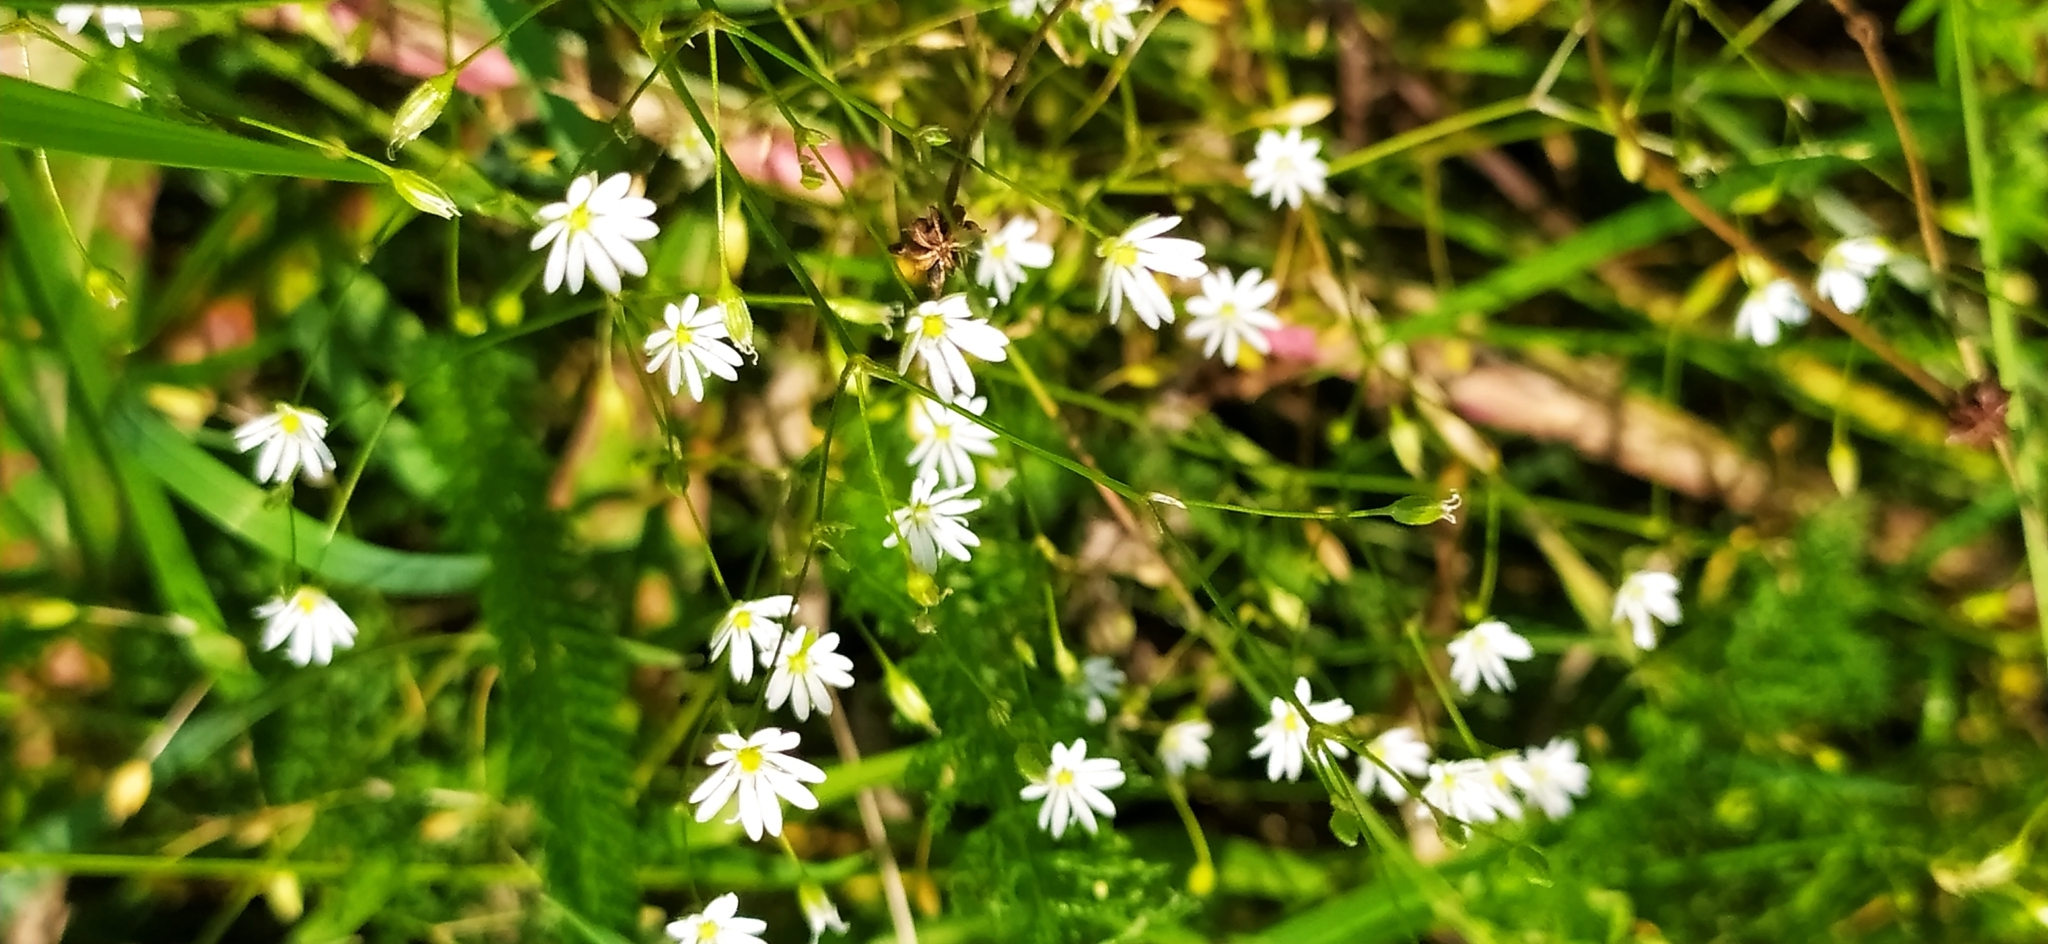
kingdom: Plantae
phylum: Tracheophyta
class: Magnoliopsida
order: Caryophyllales
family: Caryophyllaceae
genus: Stellaria
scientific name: Stellaria graminea
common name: Grass-like starwort
